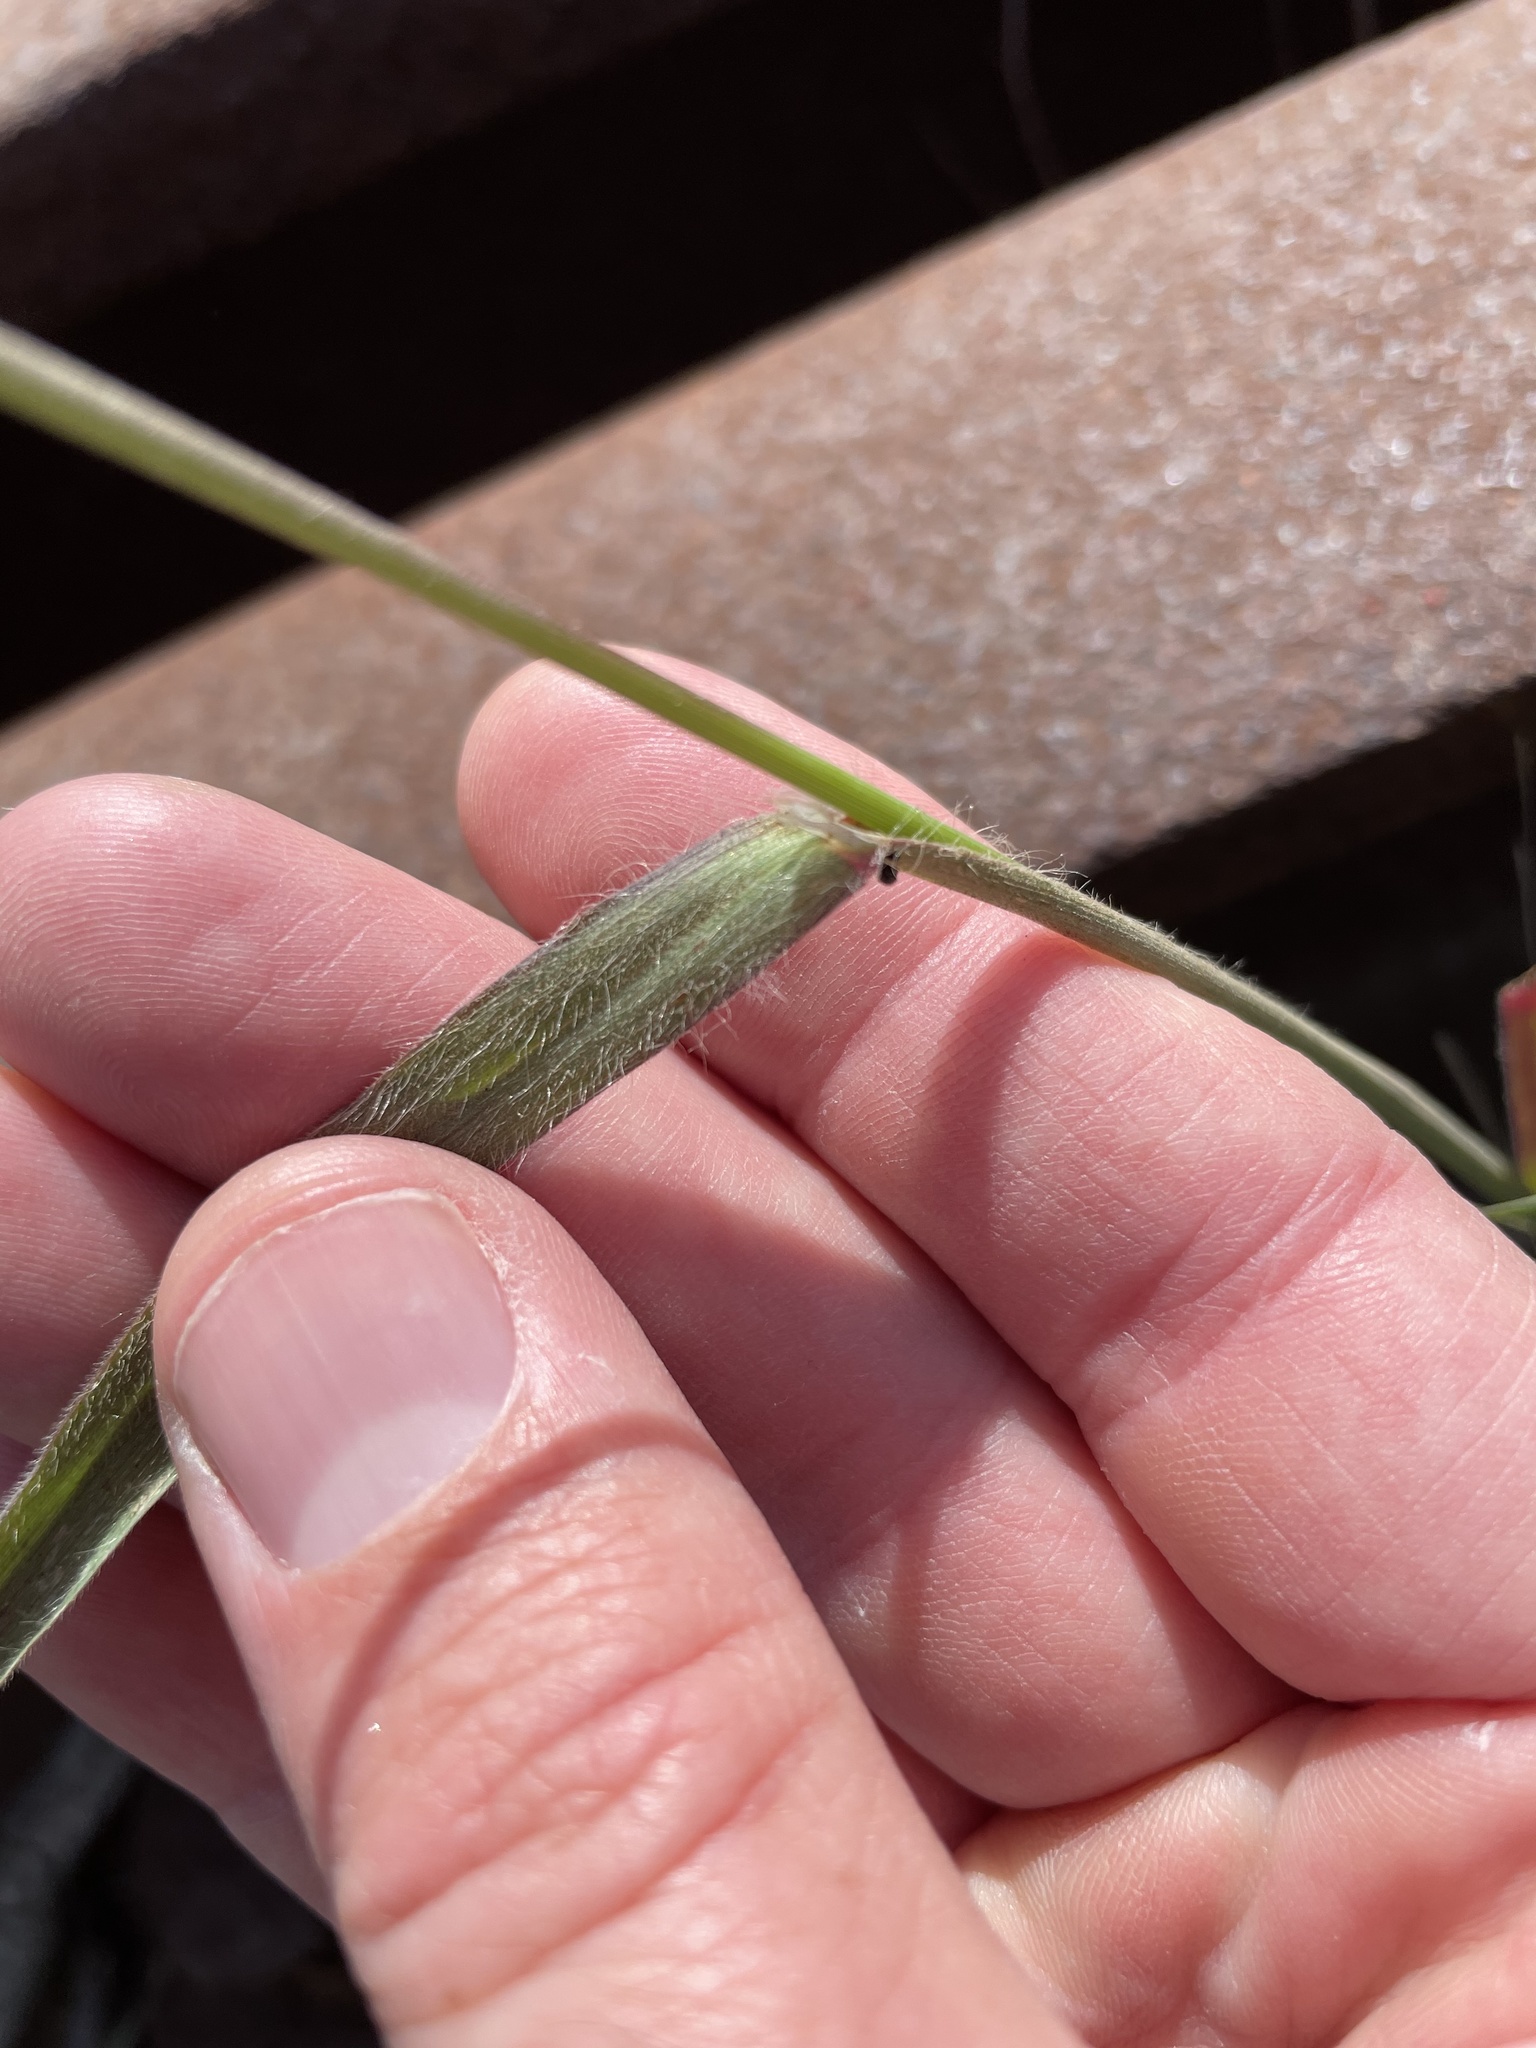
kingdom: Plantae
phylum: Tracheophyta
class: Liliopsida
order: Poales
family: Poaceae
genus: Bromus
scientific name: Bromus diandrus
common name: Ripgut brome
